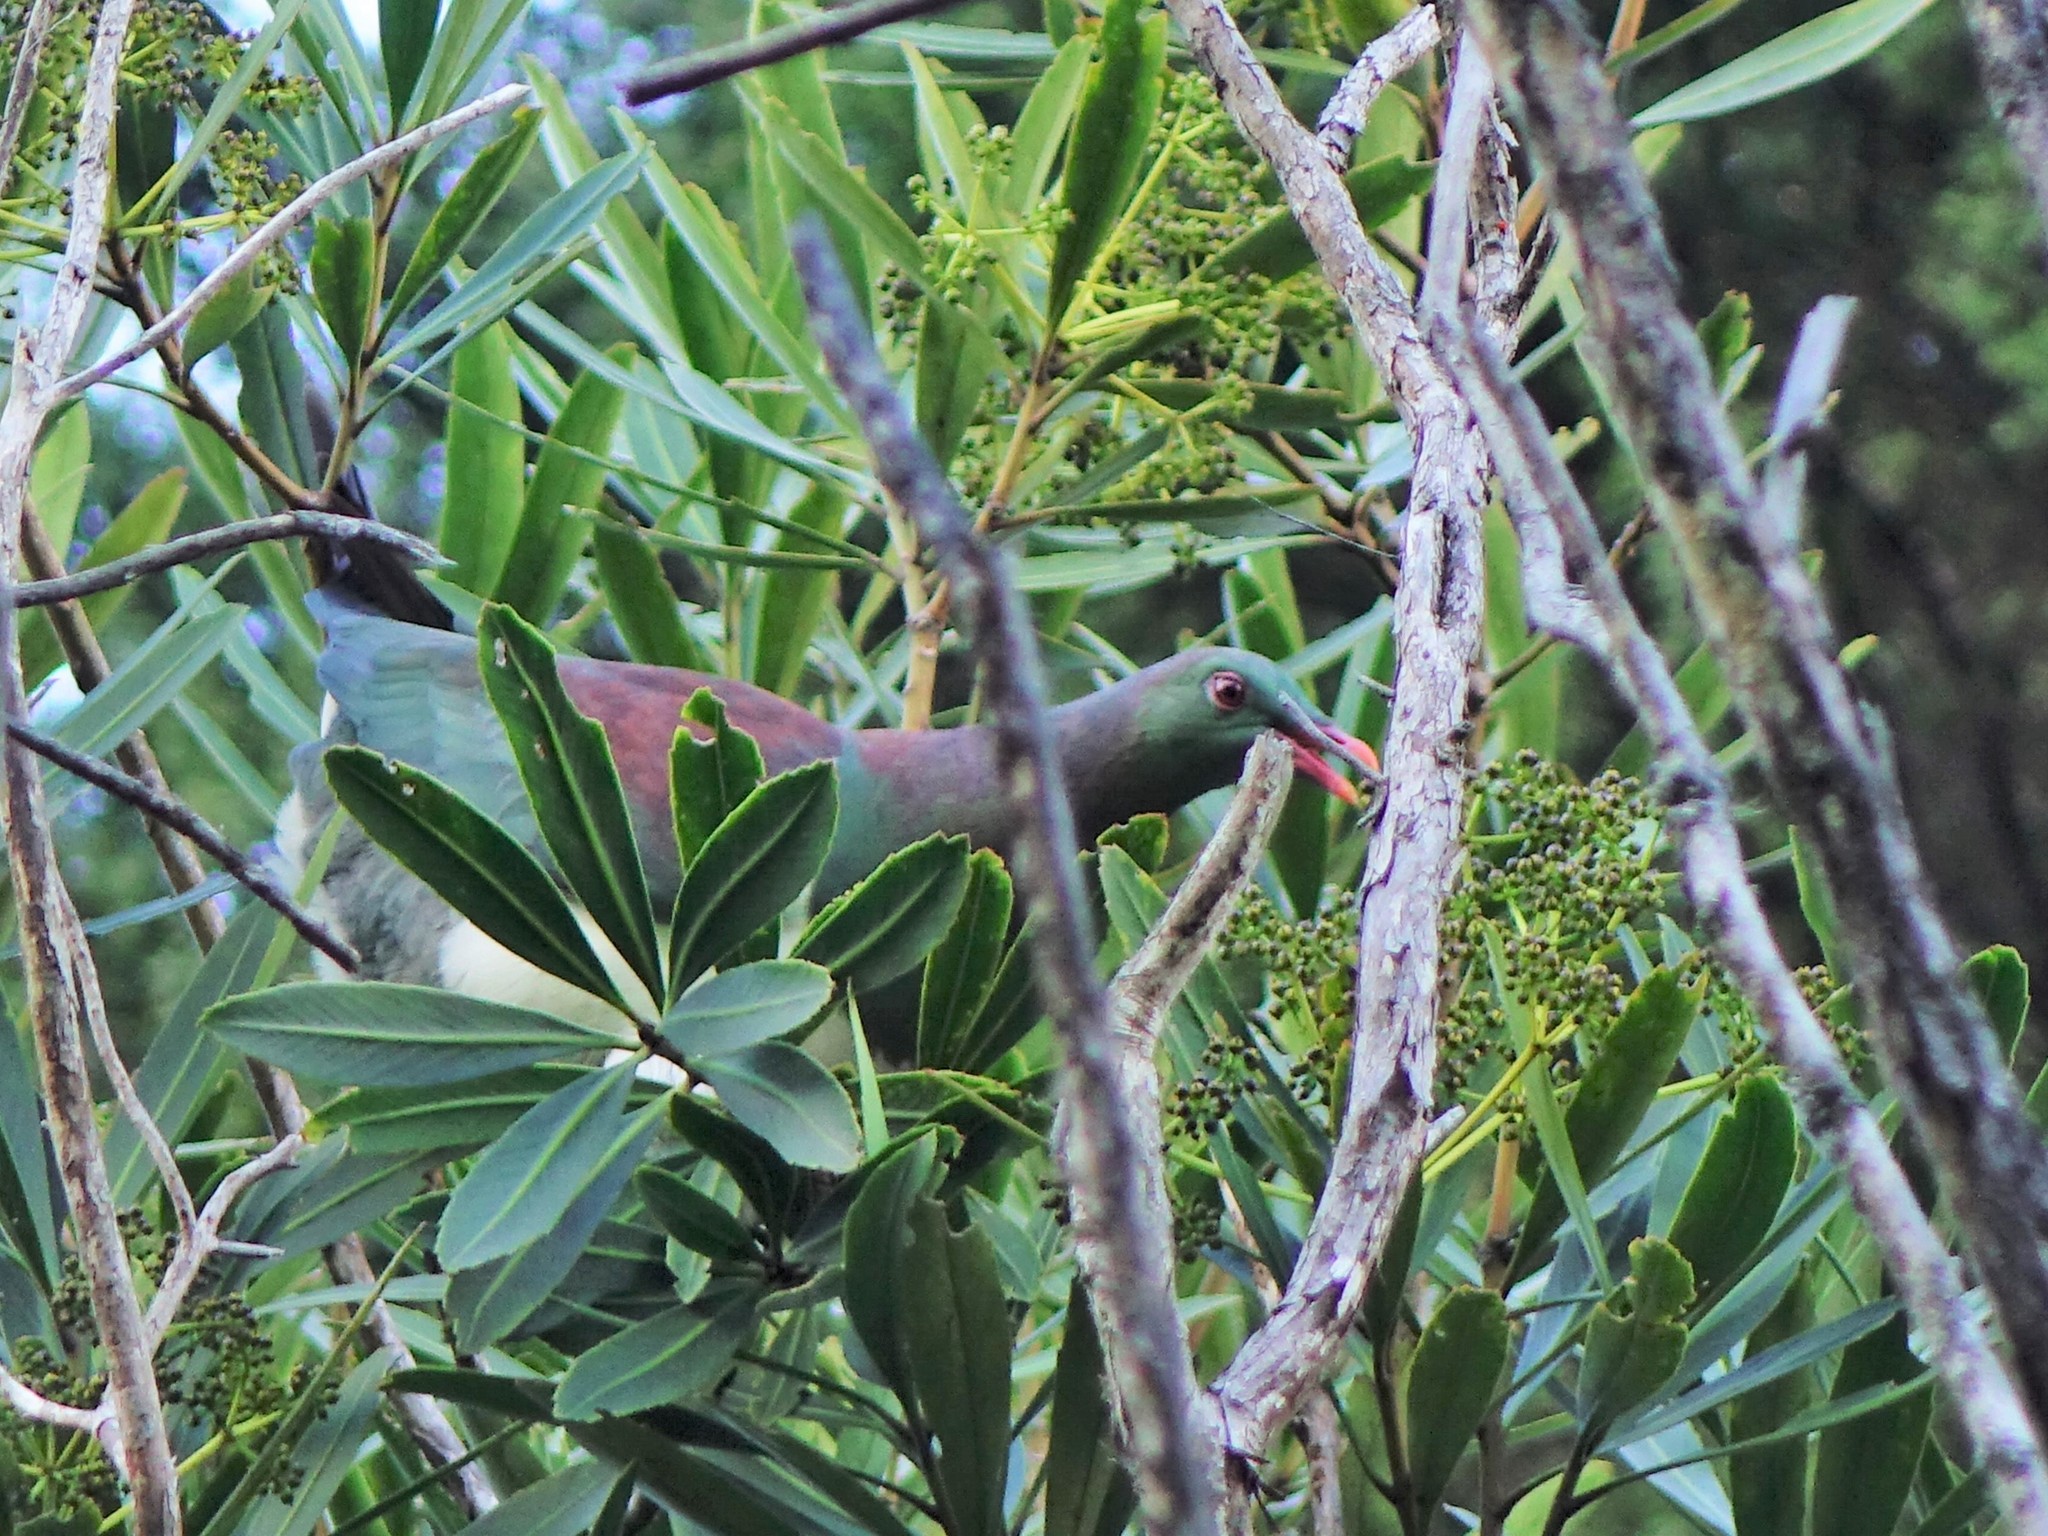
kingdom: Animalia
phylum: Chordata
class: Aves
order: Columbiformes
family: Columbidae
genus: Hemiphaga
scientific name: Hemiphaga novaeseelandiae
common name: New zealand pigeon
